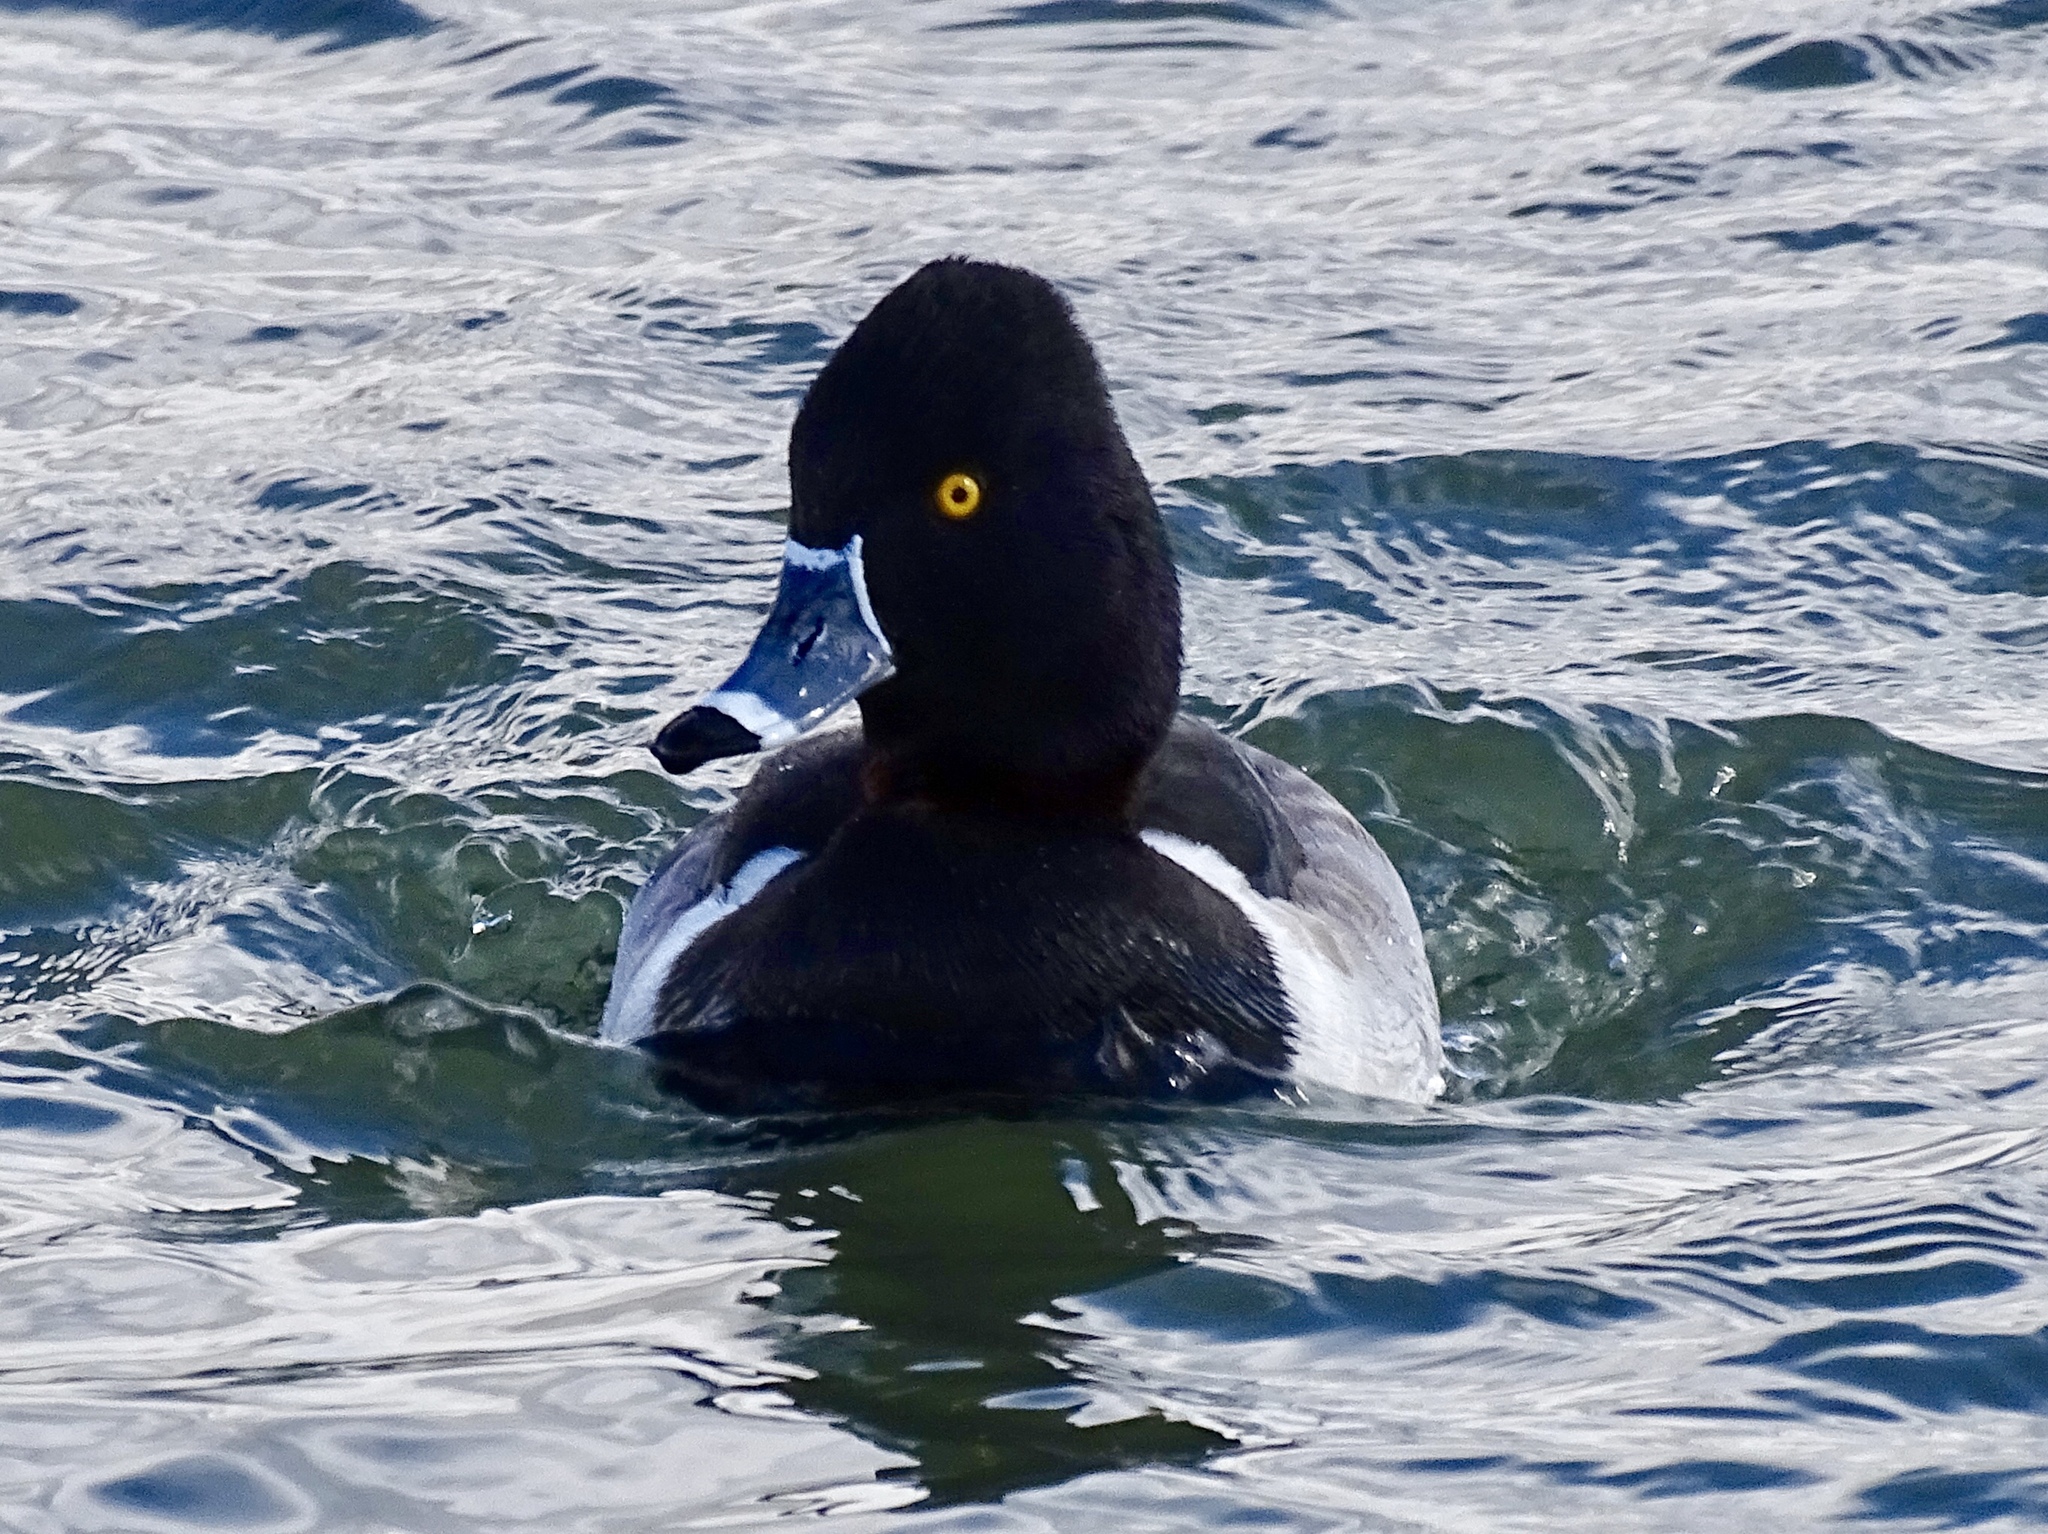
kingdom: Animalia
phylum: Chordata
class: Aves
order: Anseriformes
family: Anatidae
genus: Aythya
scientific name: Aythya collaris
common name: Ring-necked duck
